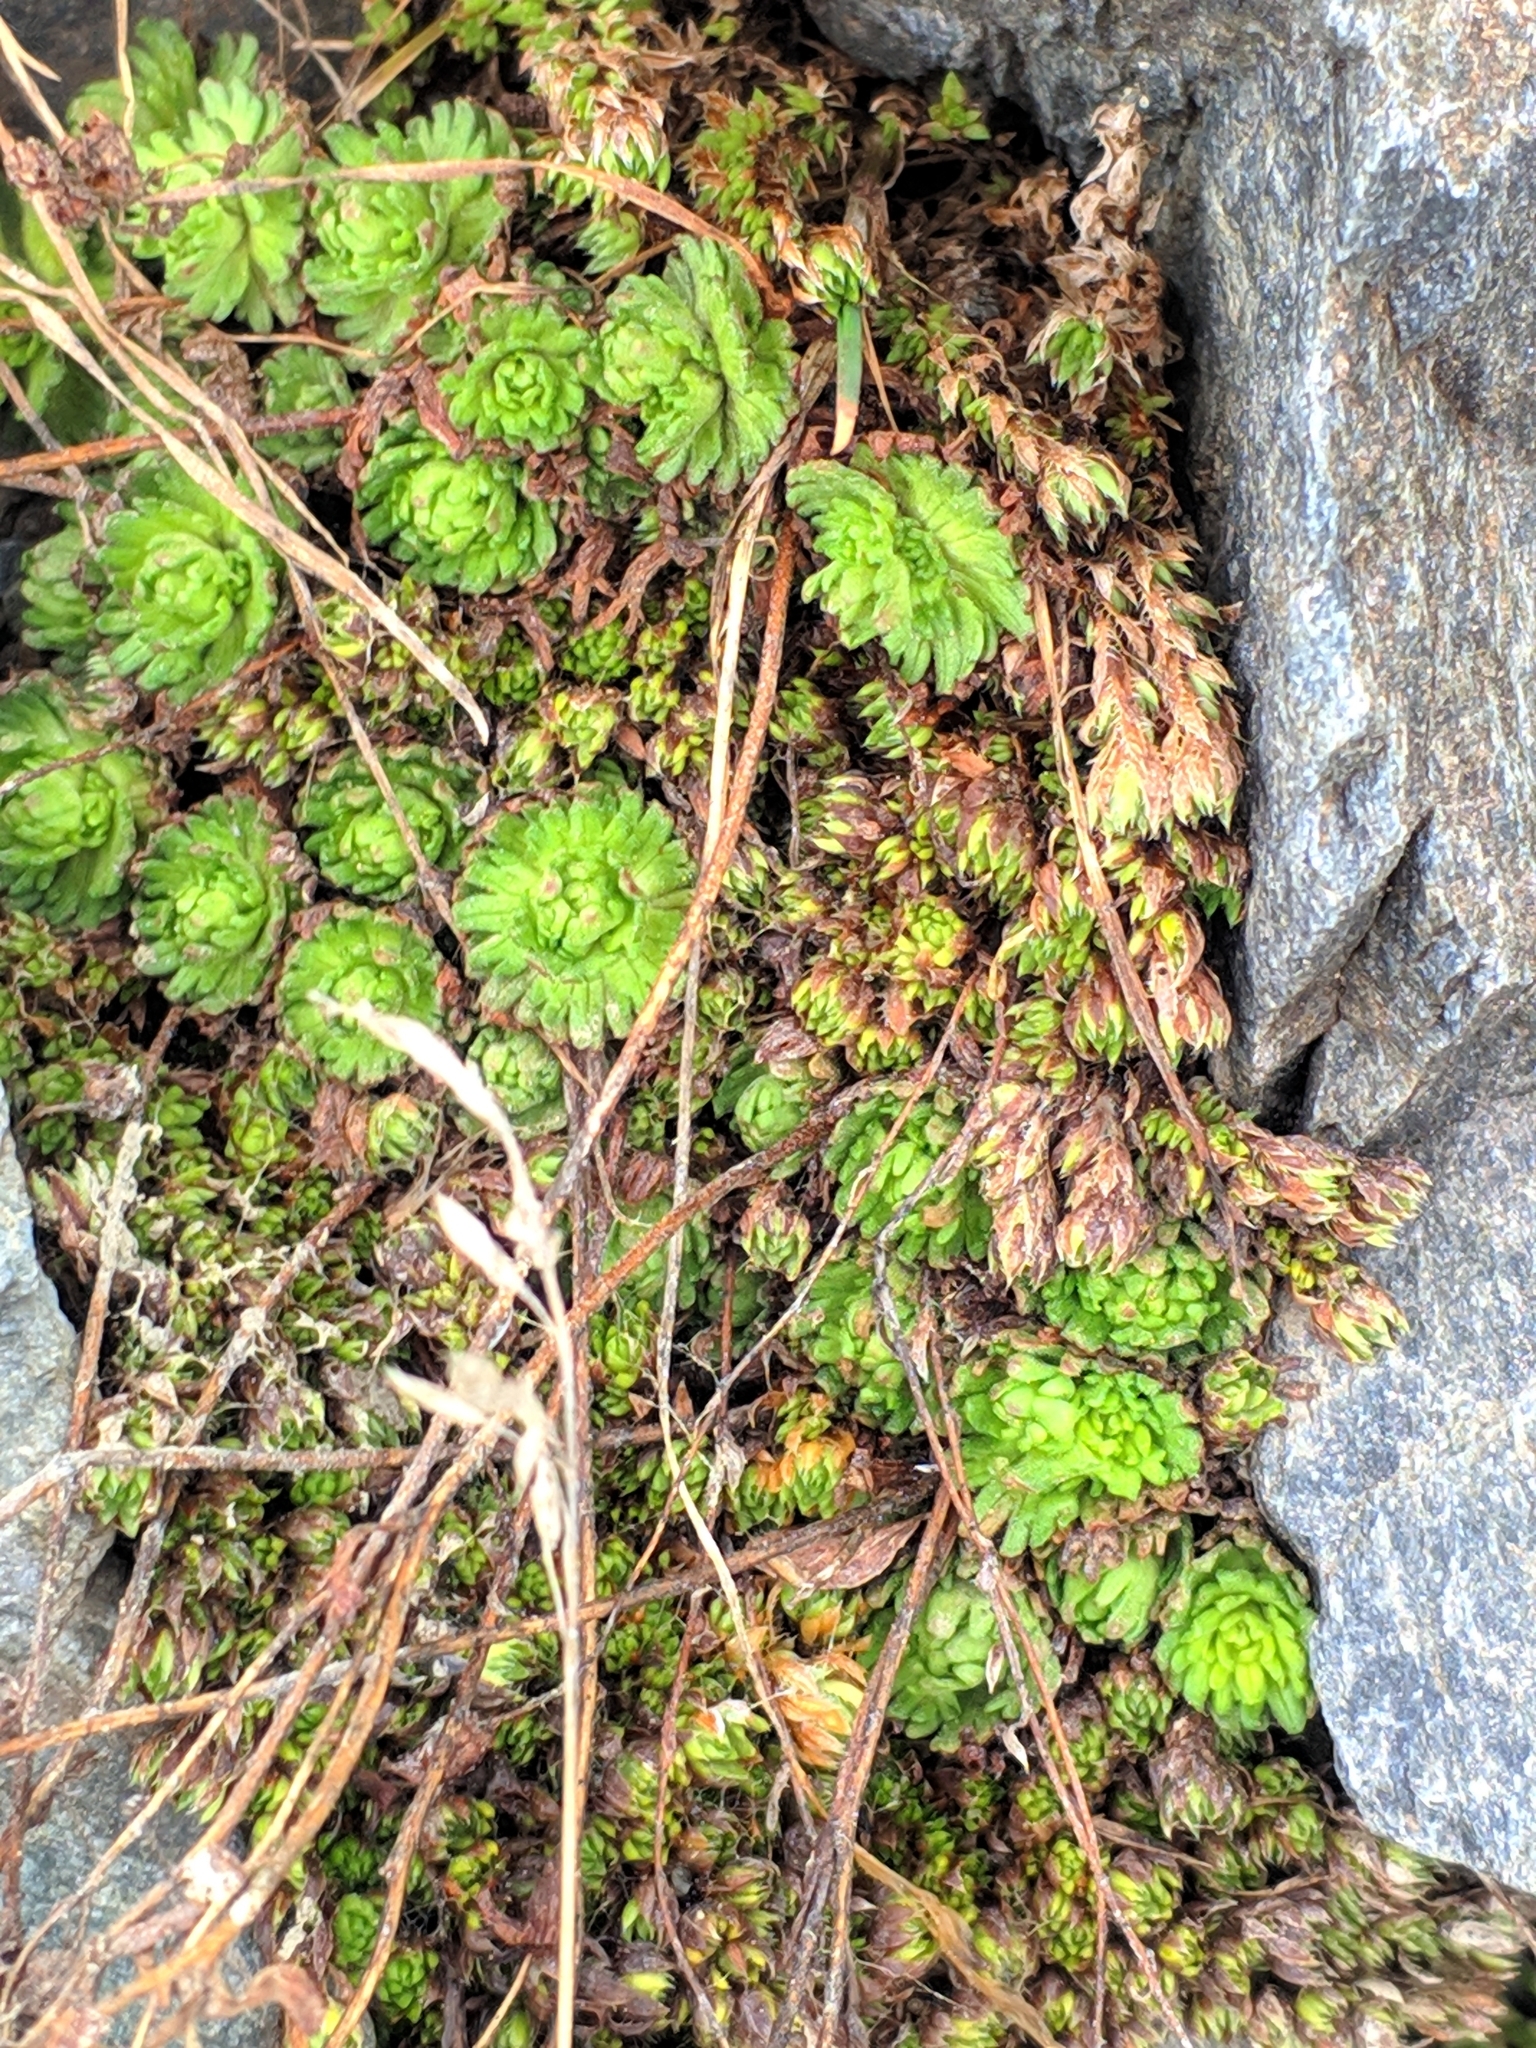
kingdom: Plantae
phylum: Tracheophyta
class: Magnoliopsida
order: Saxifragales
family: Saxifragaceae
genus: Saxifraga
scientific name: Saxifraga exarata
